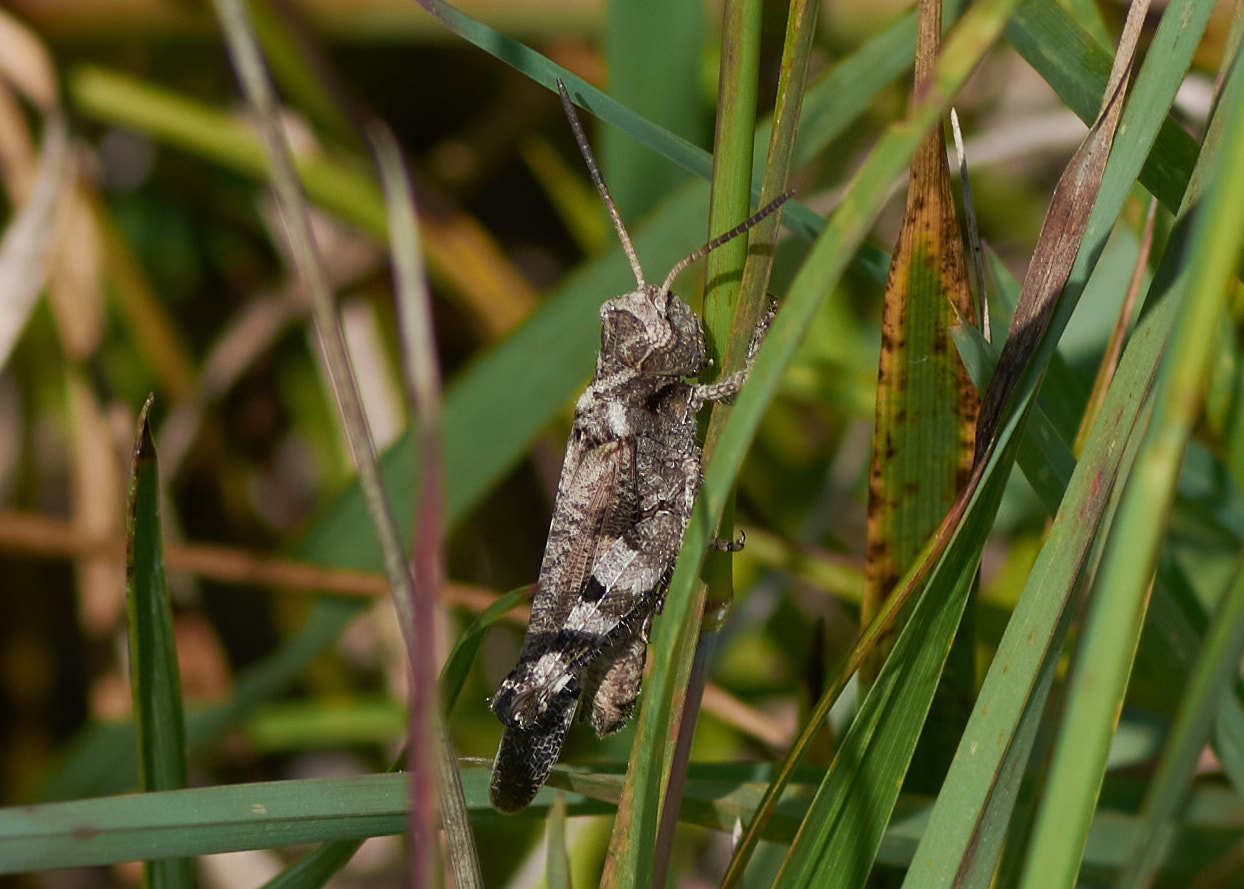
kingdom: Animalia
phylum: Arthropoda
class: Insecta
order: Orthoptera
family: Acrididae
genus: Encoptolophus
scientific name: Encoptolophus sordidus
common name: Dusky grasshopper
